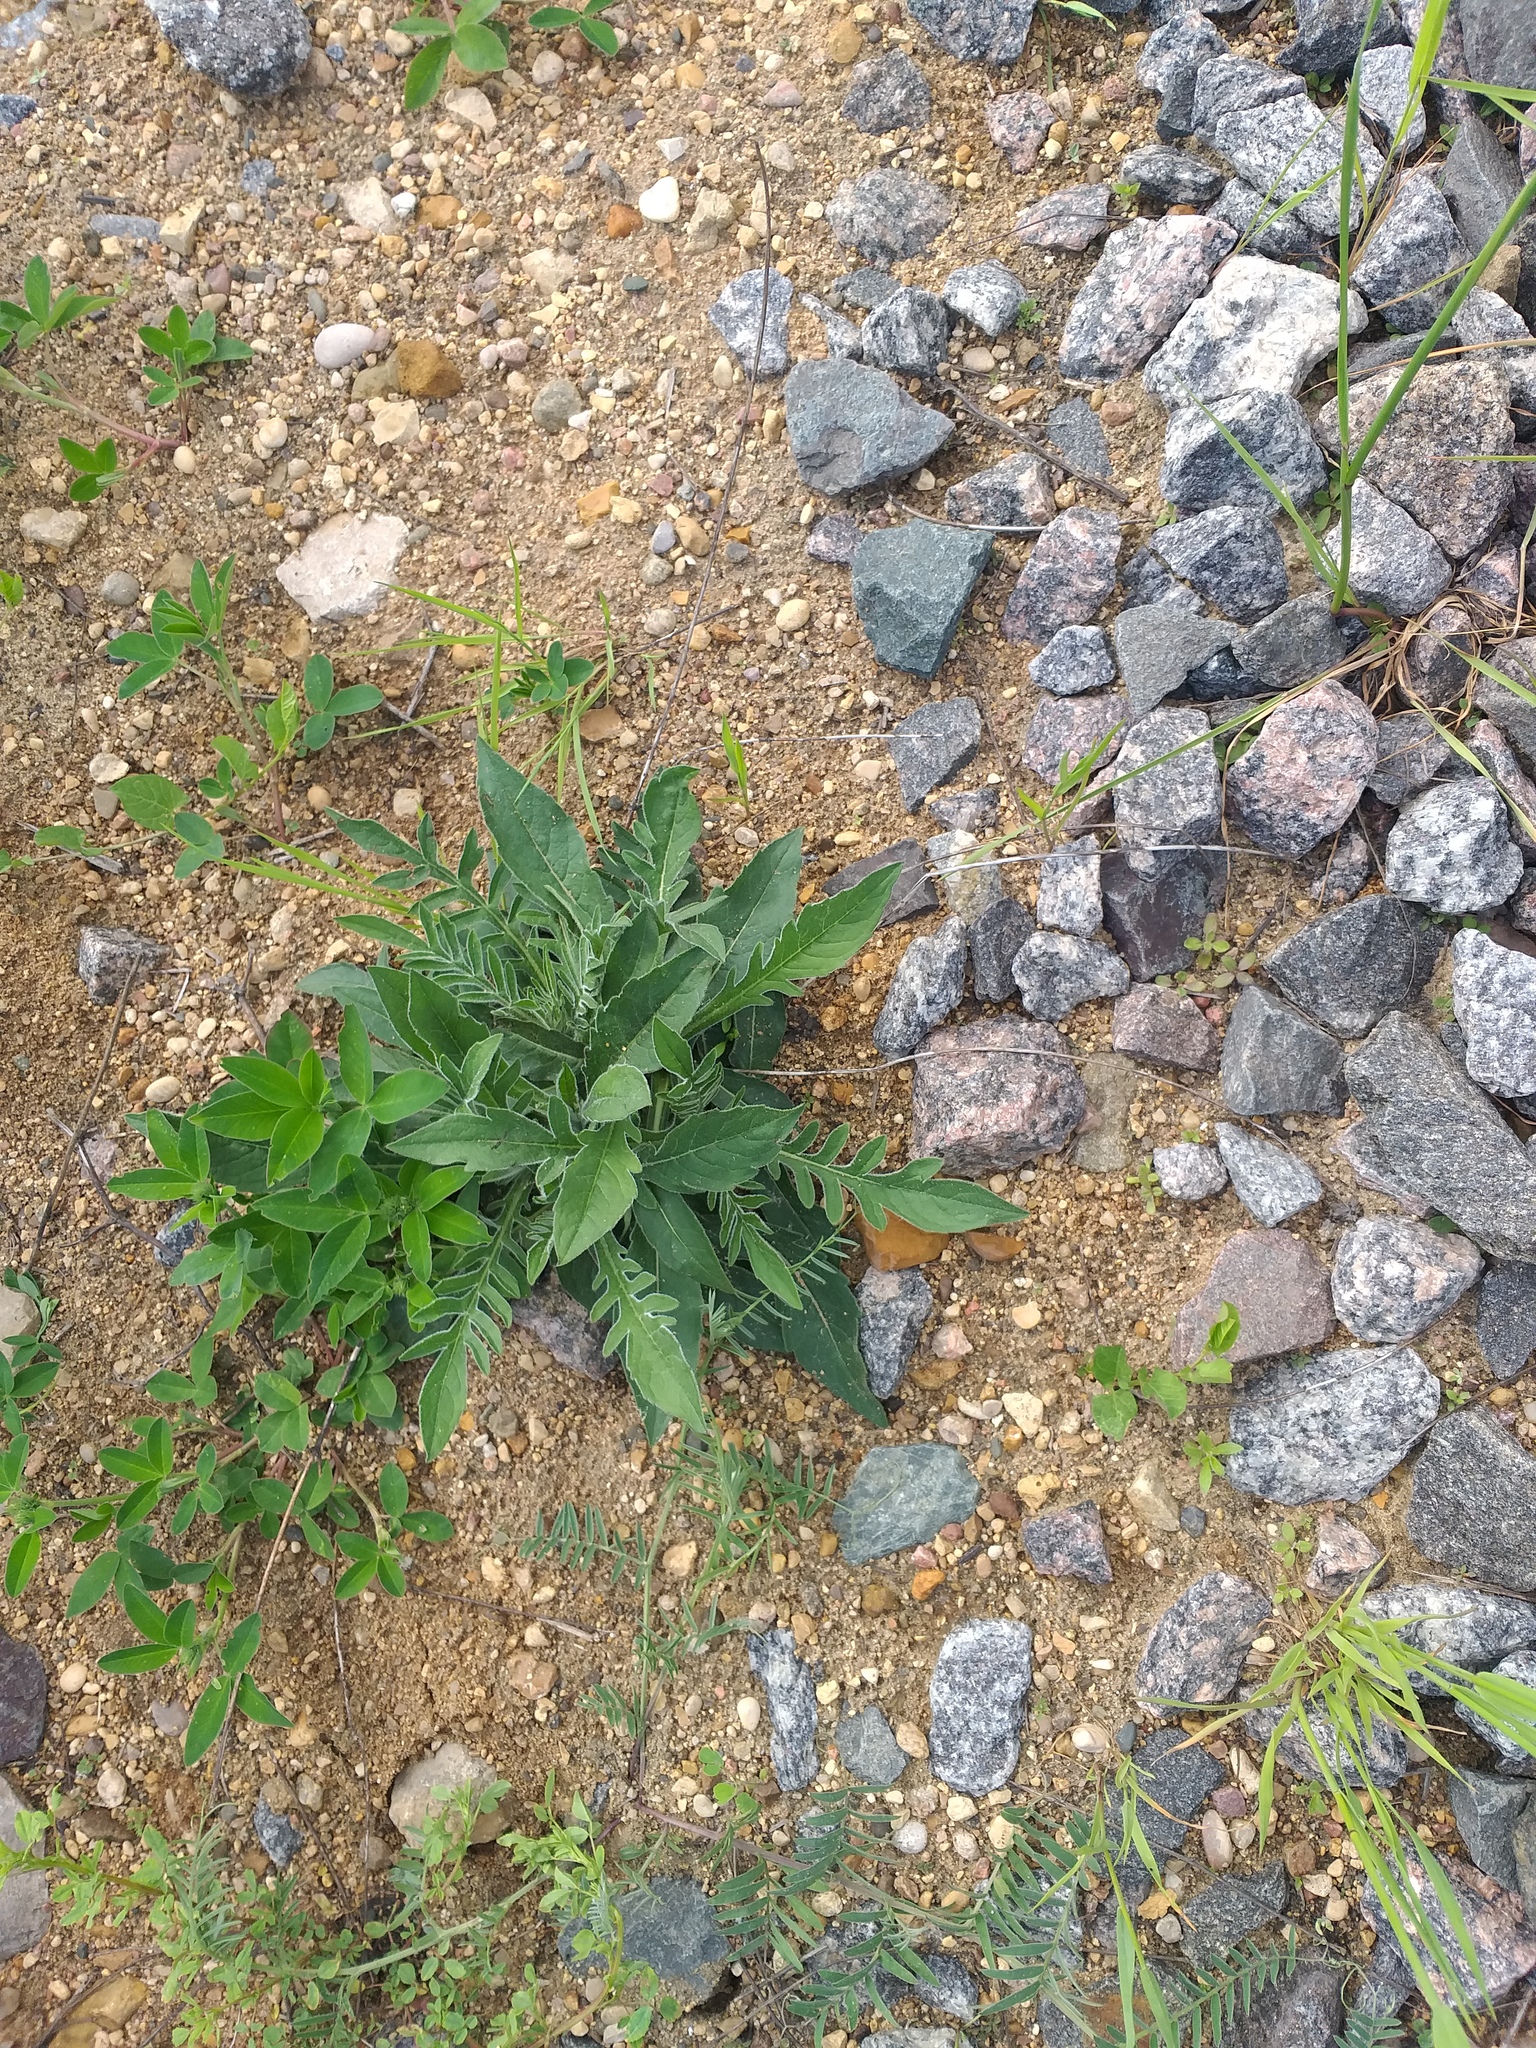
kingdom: Plantae
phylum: Tracheophyta
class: Magnoliopsida
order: Dipsacales
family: Caprifoliaceae
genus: Knautia
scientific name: Knautia arvensis
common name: Field scabiosa
